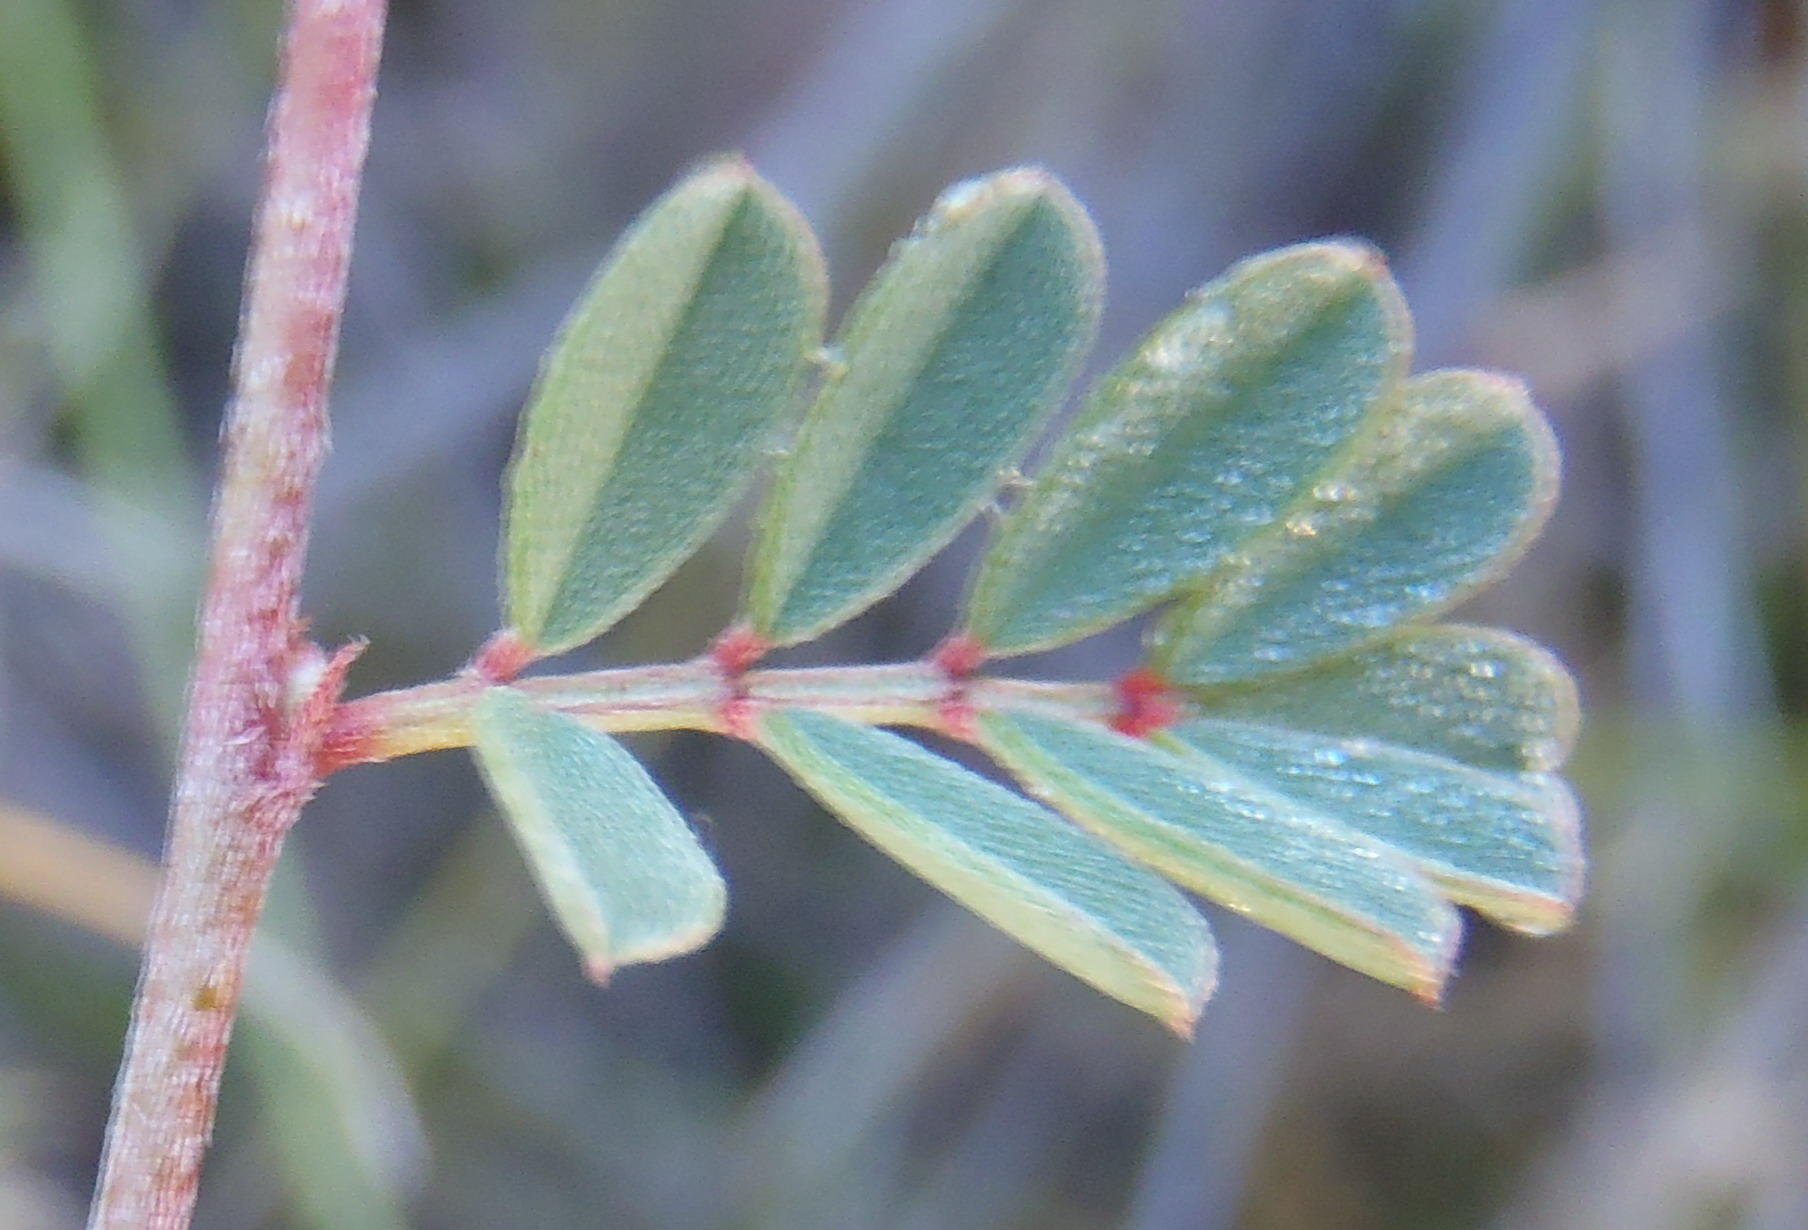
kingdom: Plantae
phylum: Tracheophyta
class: Magnoliopsida
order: Fabales
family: Fabaceae
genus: Indigofera
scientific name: Indigofera declinata
